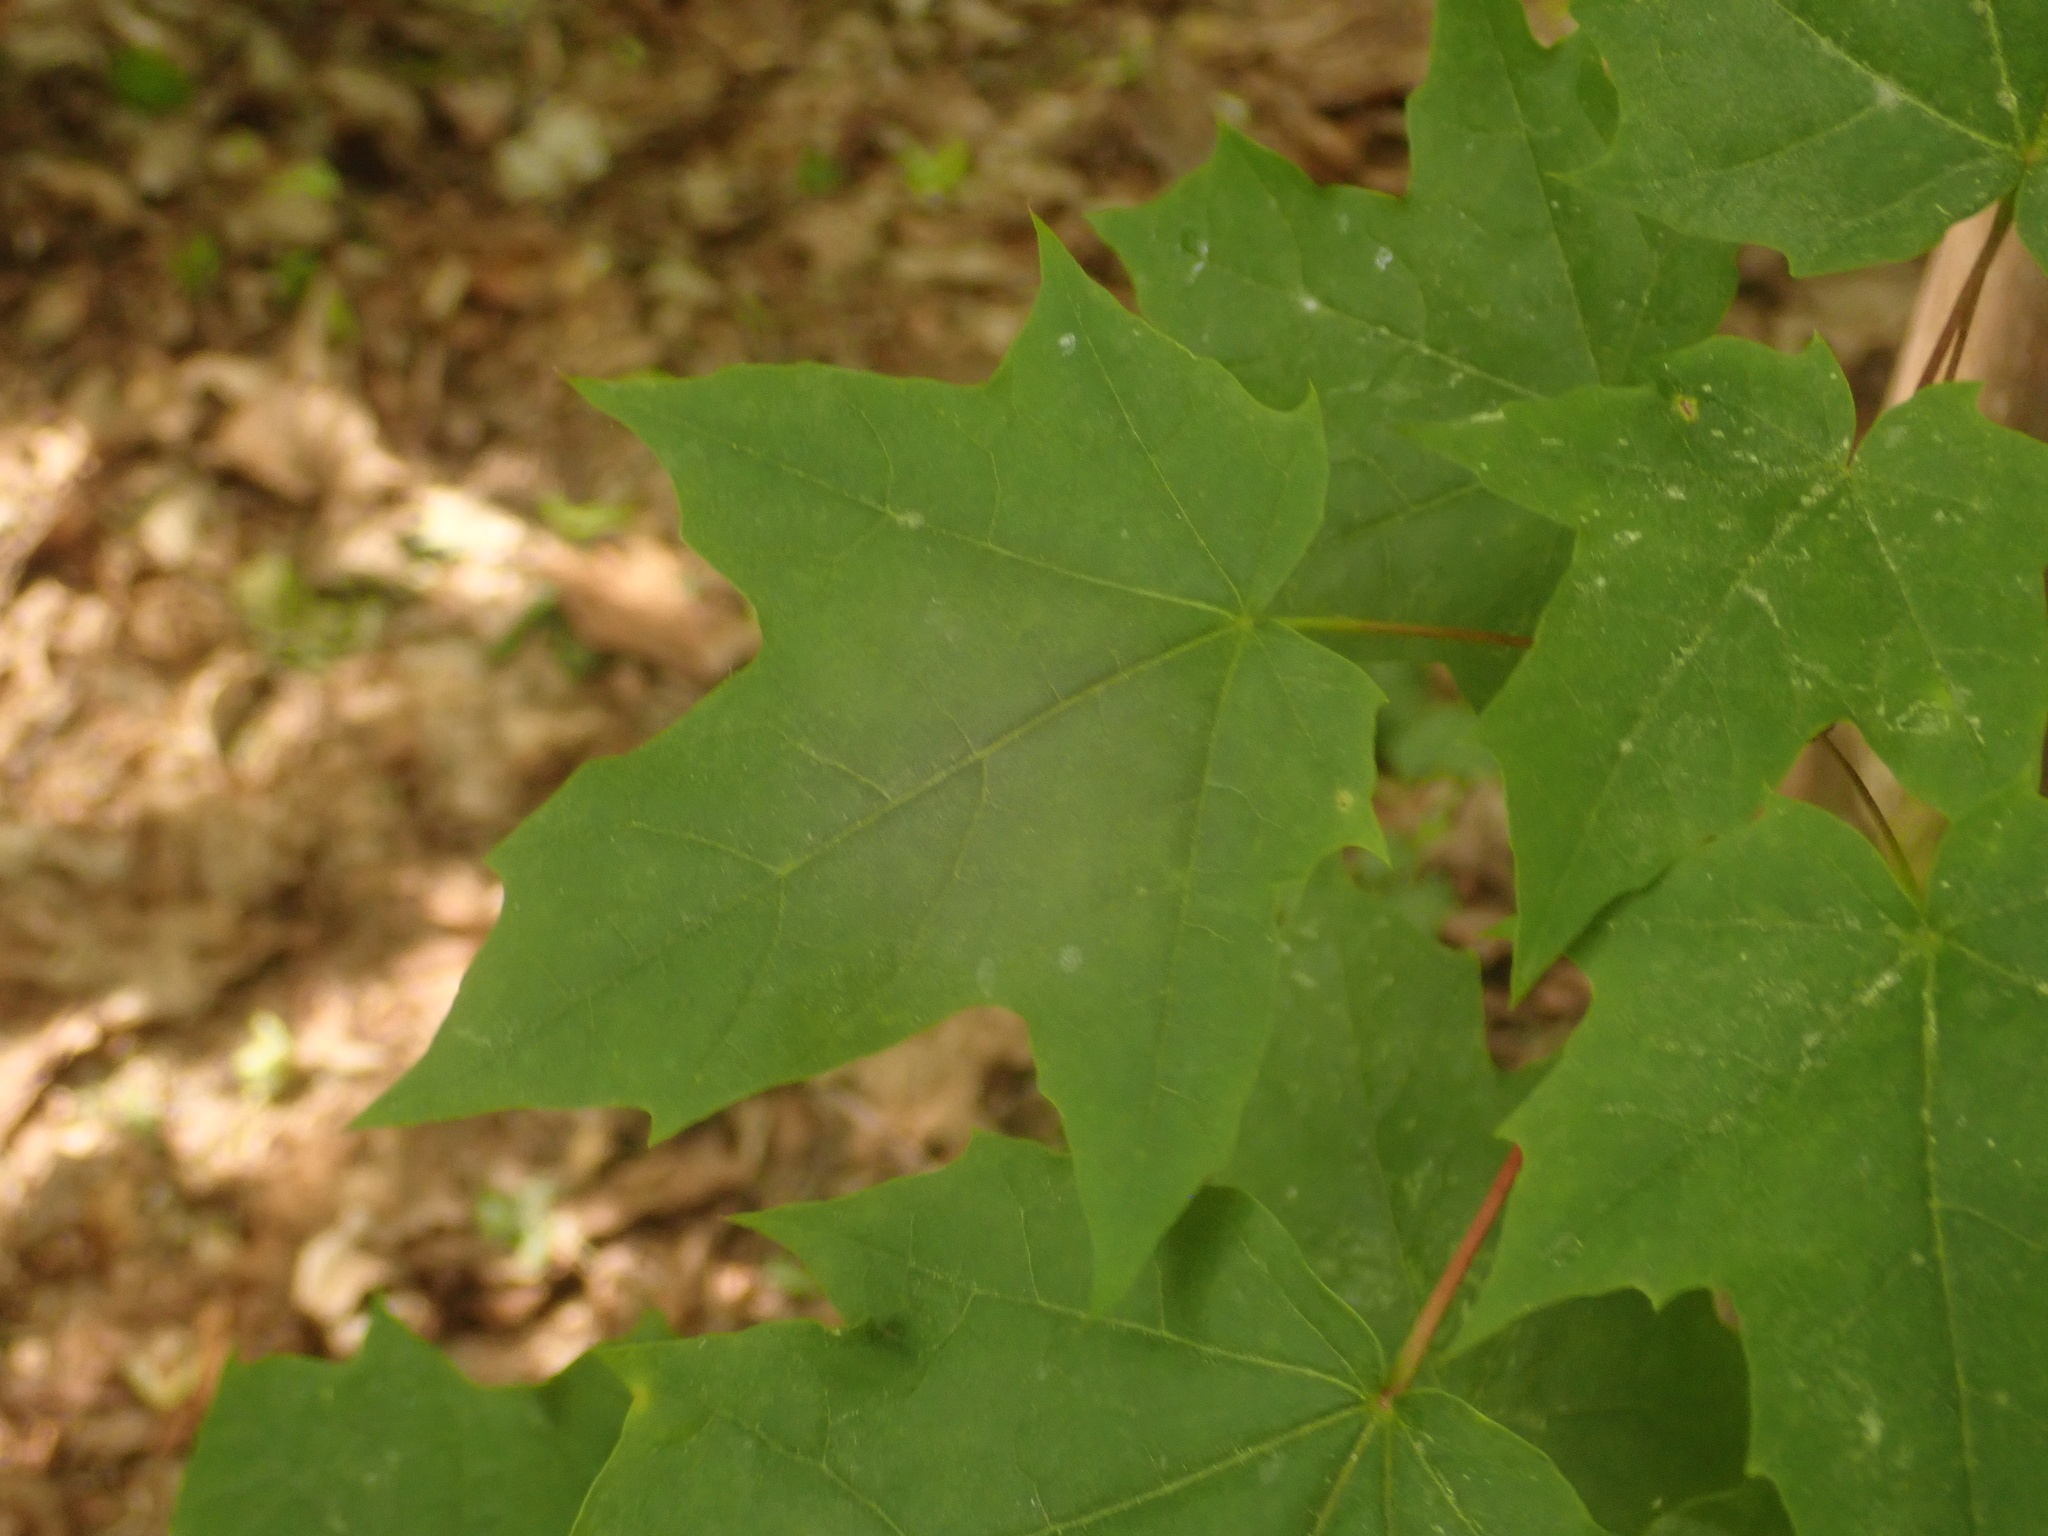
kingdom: Plantae
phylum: Tracheophyta
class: Magnoliopsida
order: Sapindales
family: Sapindaceae
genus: Acer
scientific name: Acer platanoides
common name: Norway maple
